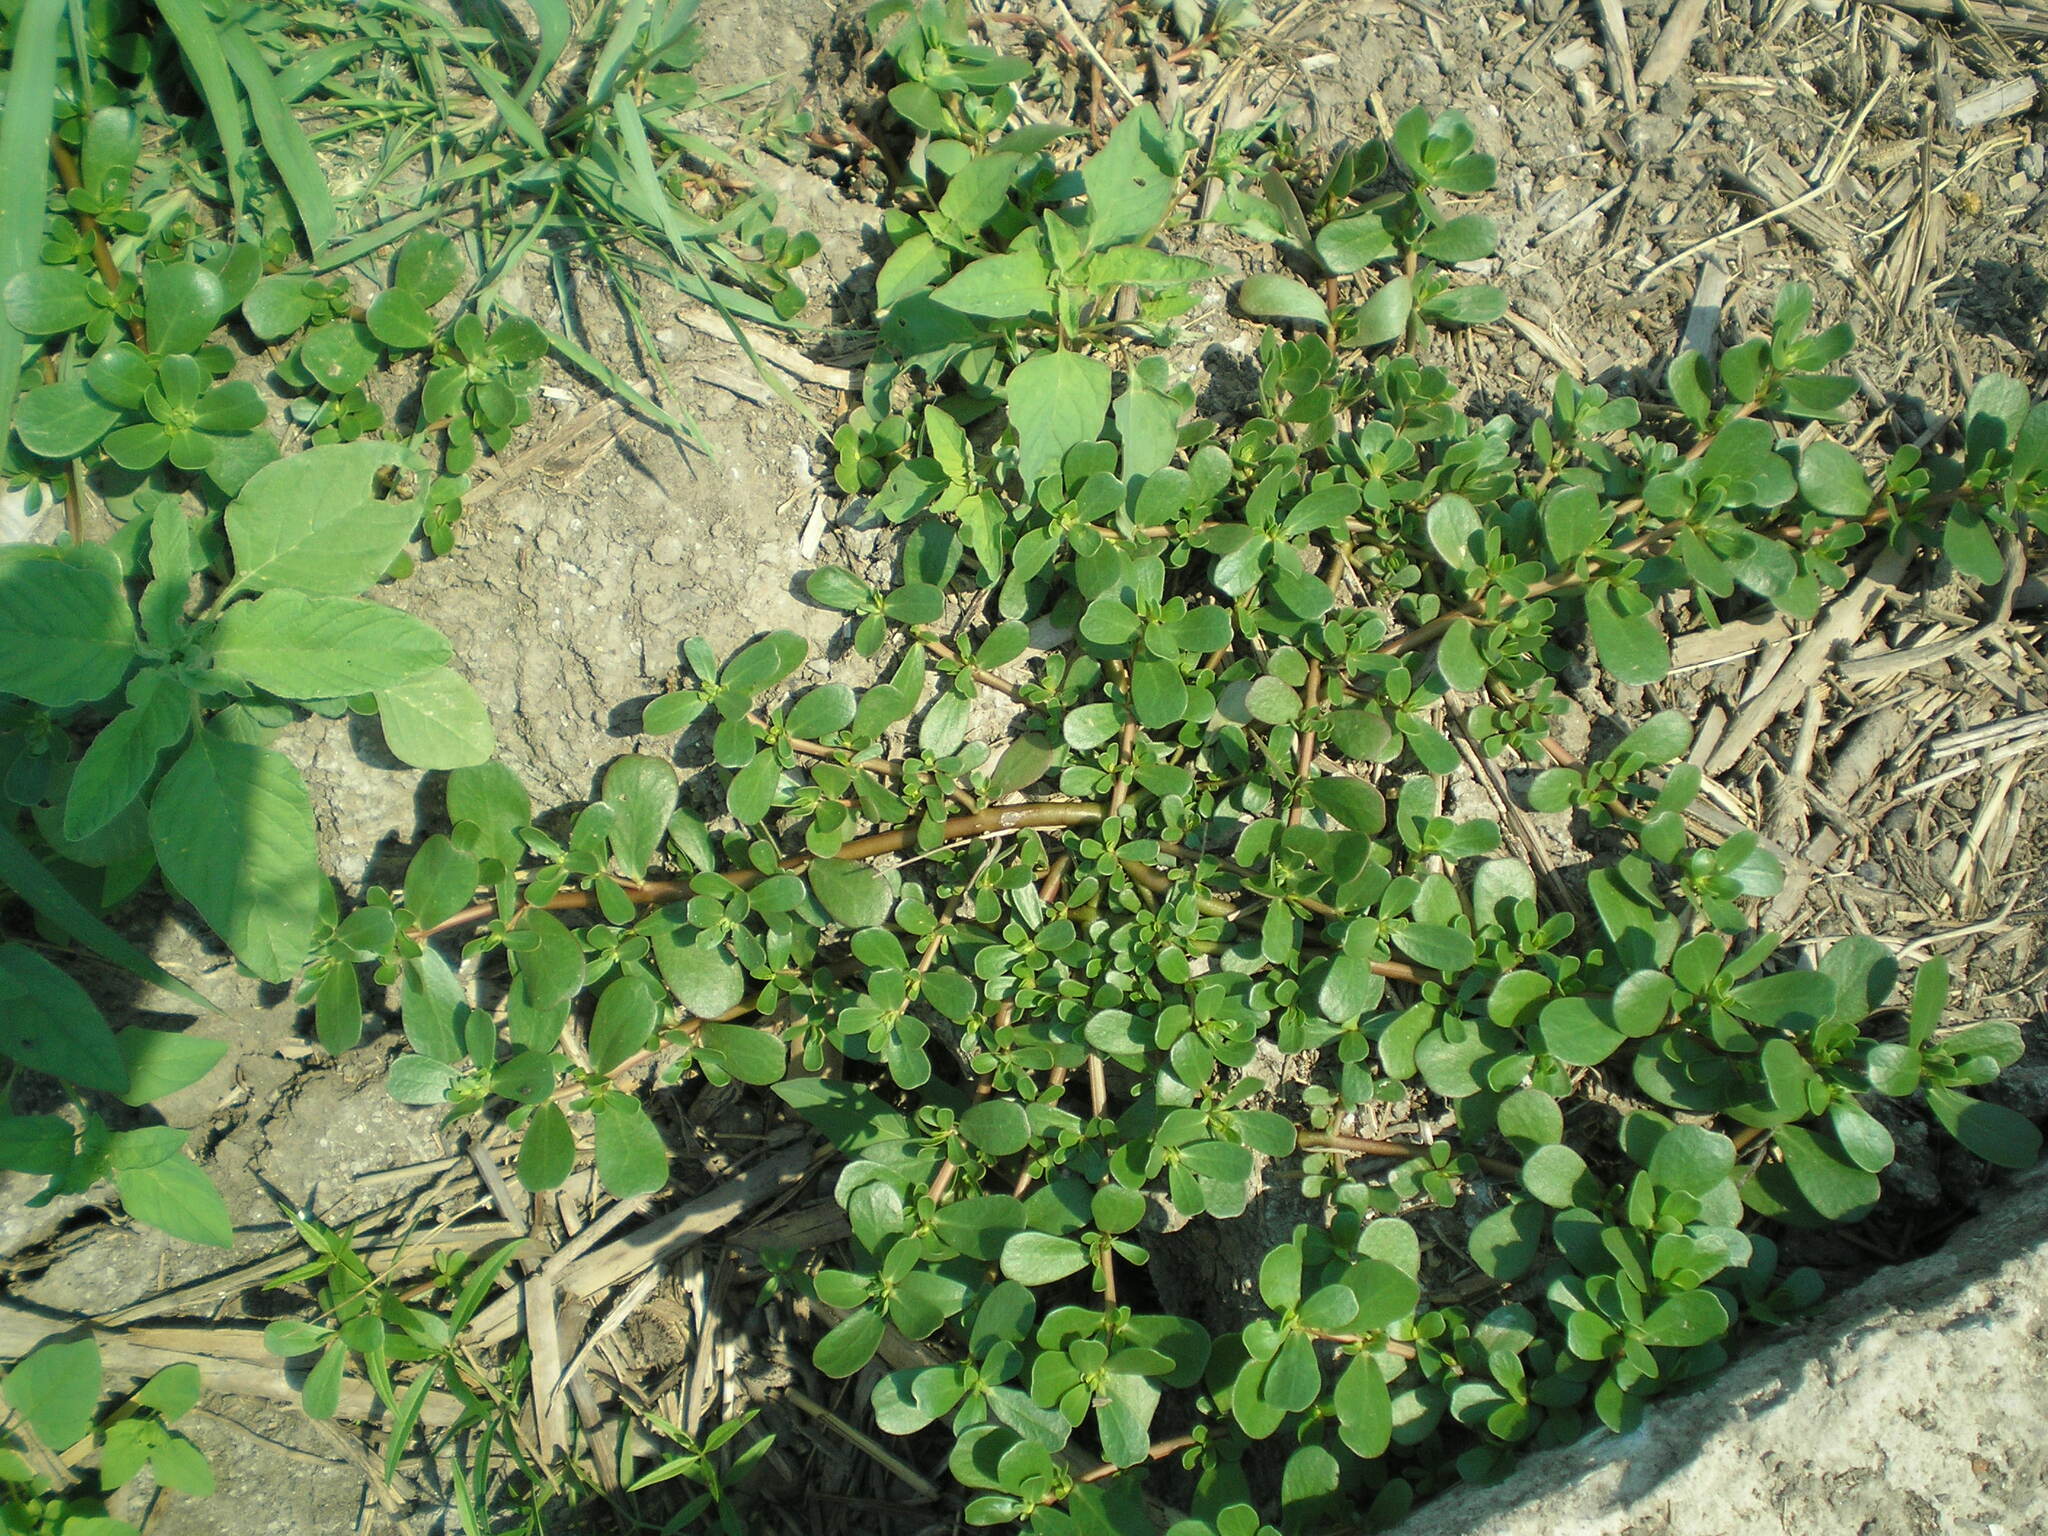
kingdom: Plantae
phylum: Tracheophyta
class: Magnoliopsida
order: Caryophyllales
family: Portulacaceae
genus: Portulaca
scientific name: Portulaca oleracea
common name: Common purslane
